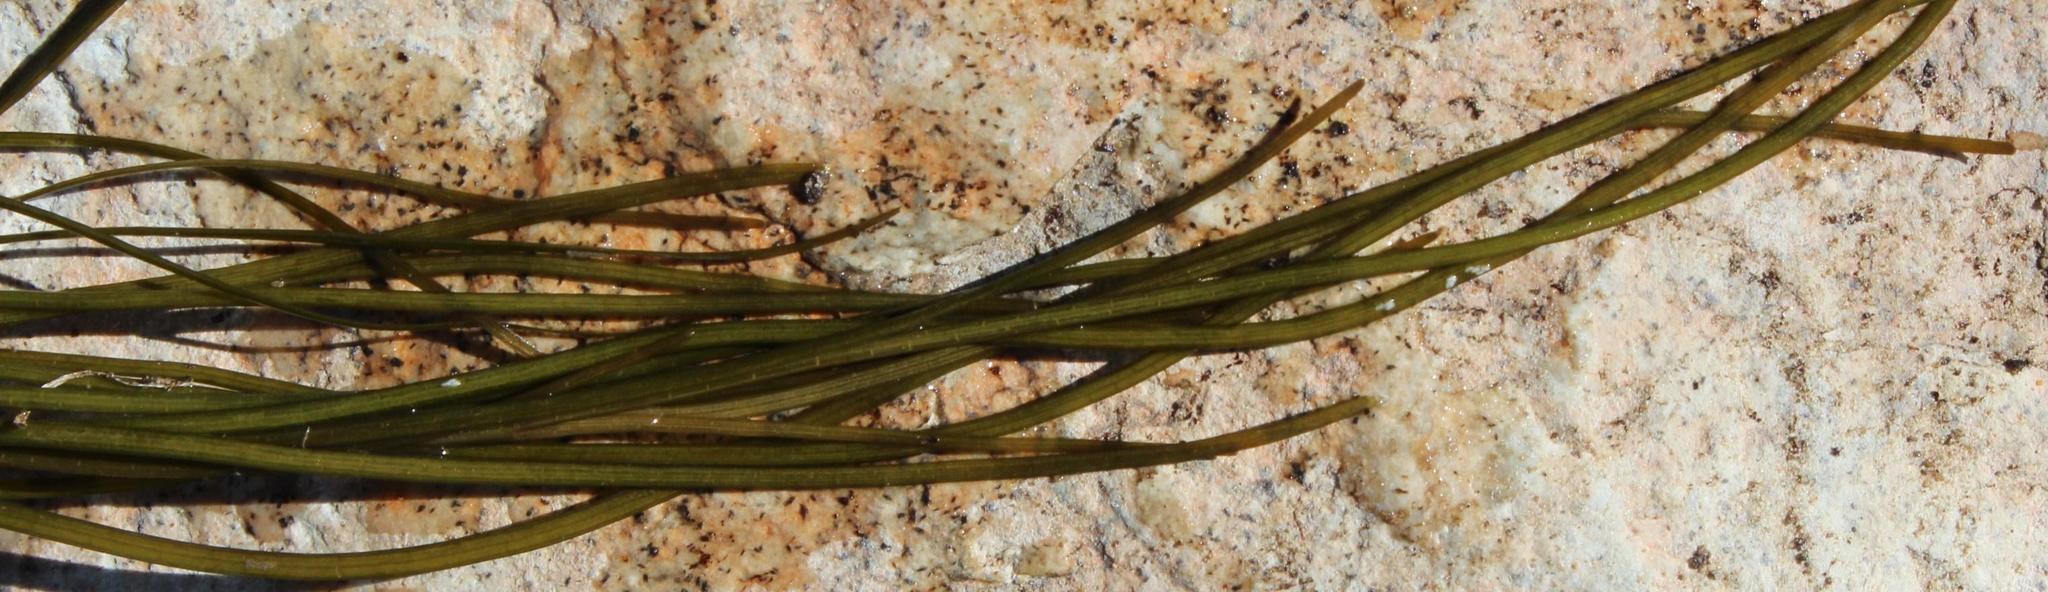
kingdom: Plantae
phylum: Tracheophyta
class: Liliopsida
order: Alismatales
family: Potamogetonaceae
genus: Stuckenia
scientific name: Stuckenia pectinata
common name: Sago pondweed
